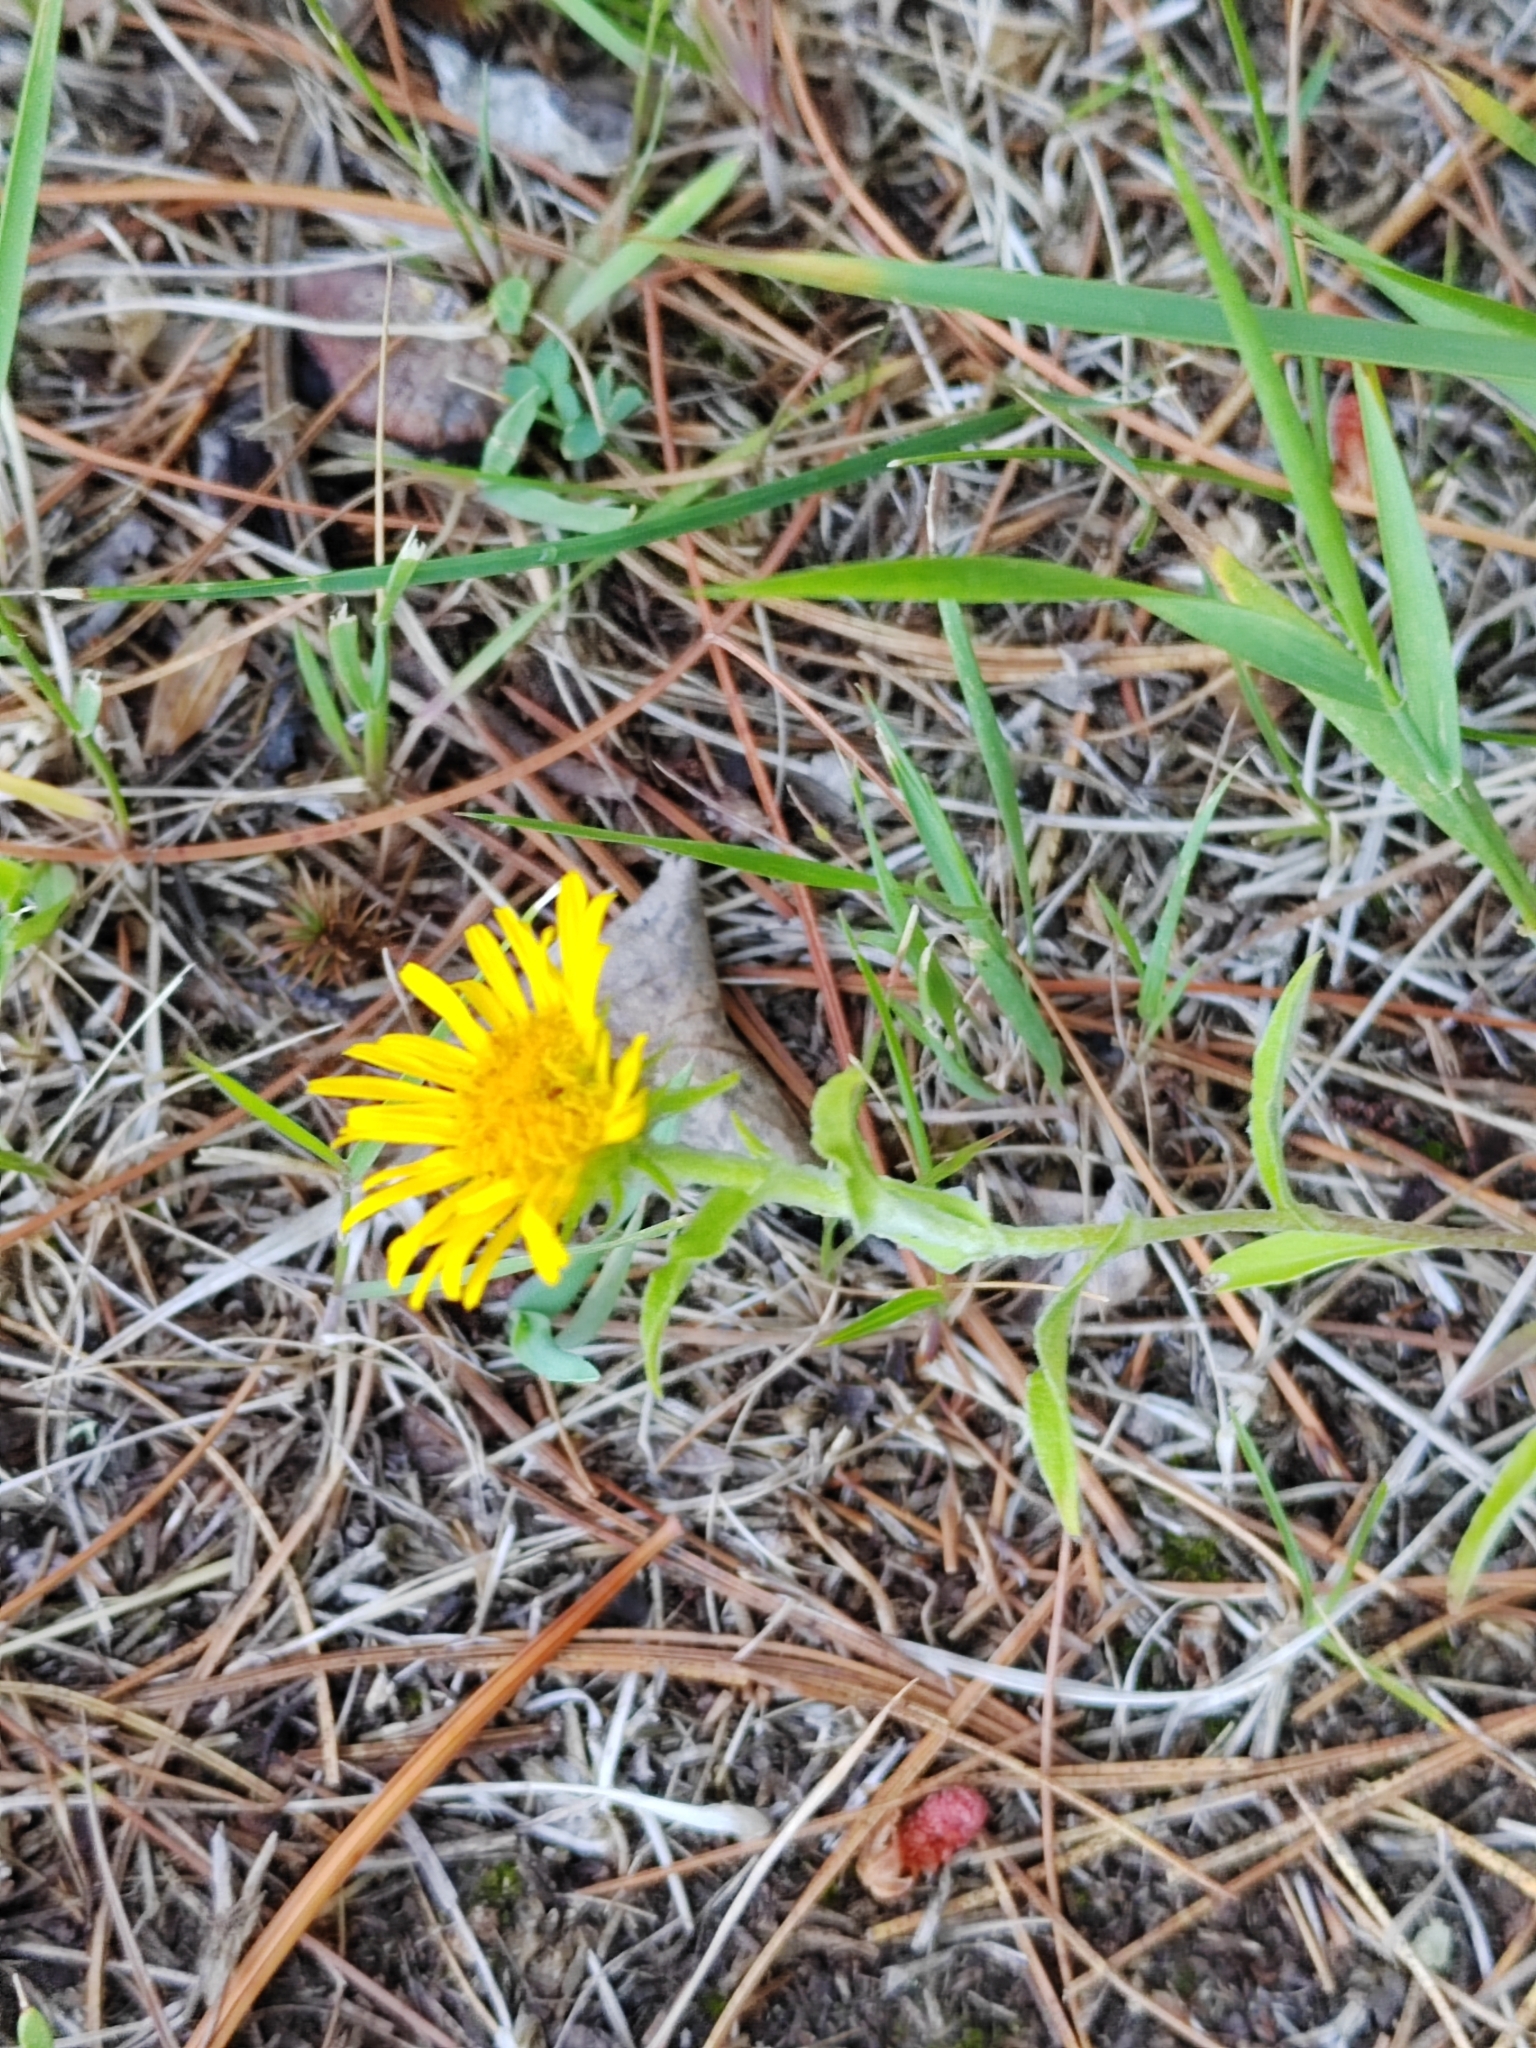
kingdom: Plantae
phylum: Tracheophyta
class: Magnoliopsida
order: Asterales
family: Asteraceae
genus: Pentanema
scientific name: Pentanema britannicum
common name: British elecampane
